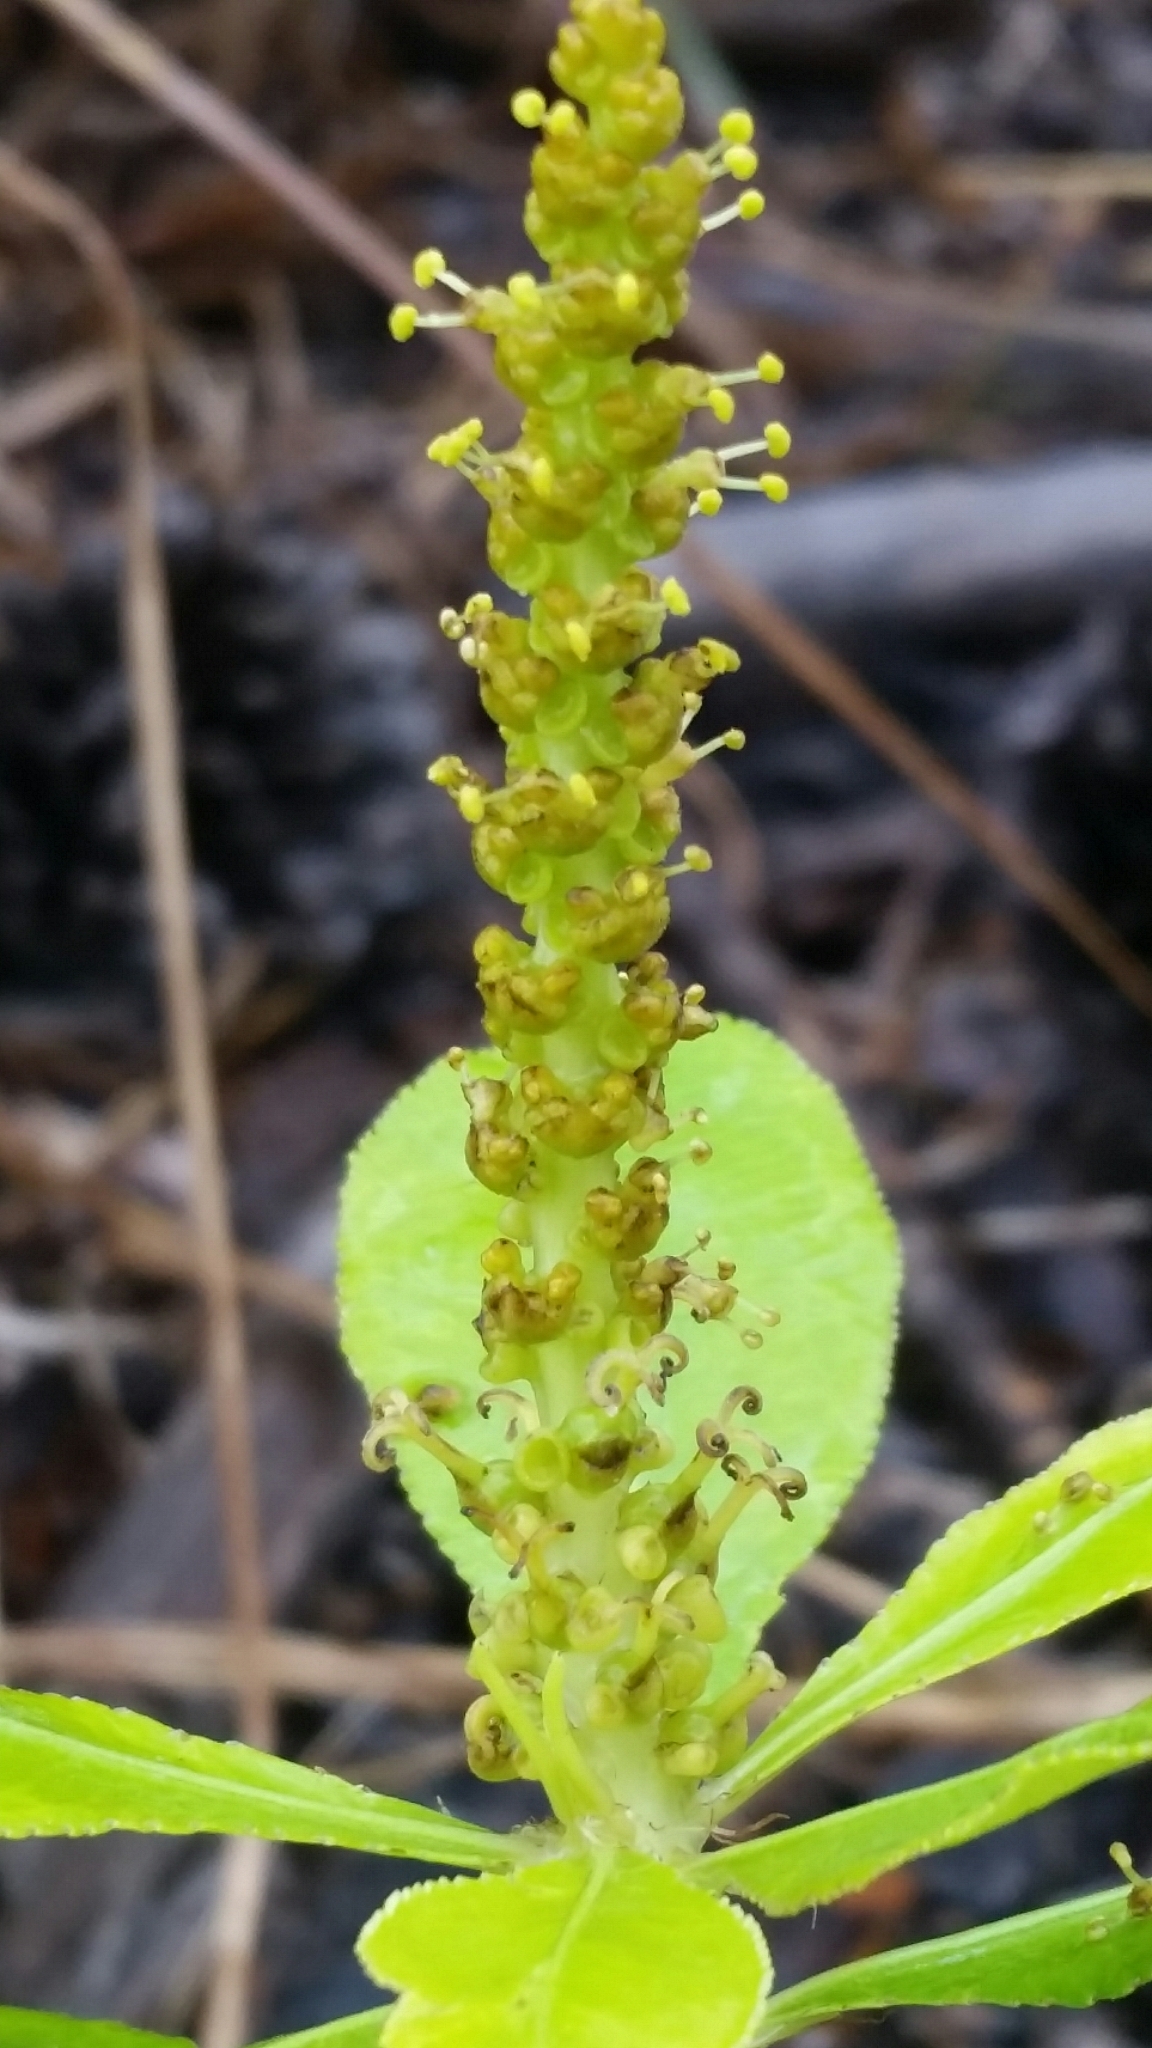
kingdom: Plantae
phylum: Tracheophyta
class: Magnoliopsida
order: Malpighiales
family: Euphorbiaceae
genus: Stillingia
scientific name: Stillingia sylvatica
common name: Queen's-delight
